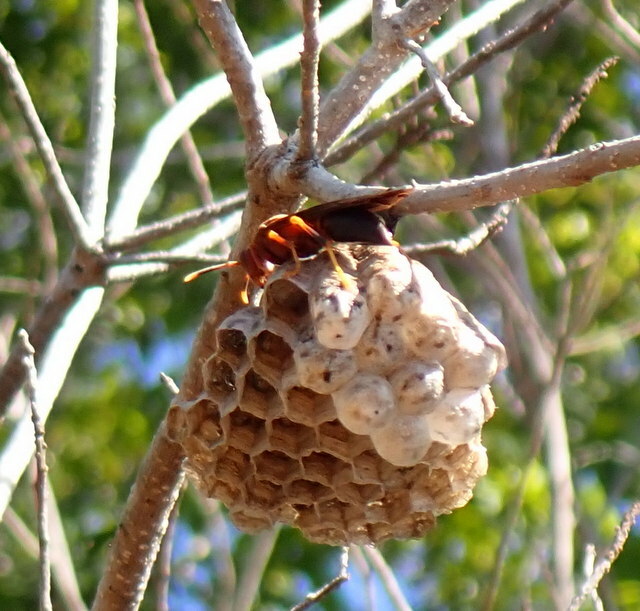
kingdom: Animalia
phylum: Arthropoda
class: Insecta
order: Hymenoptera
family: Eumenidae
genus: Polistes
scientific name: Polistes annularis
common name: Ringed paper wasp
